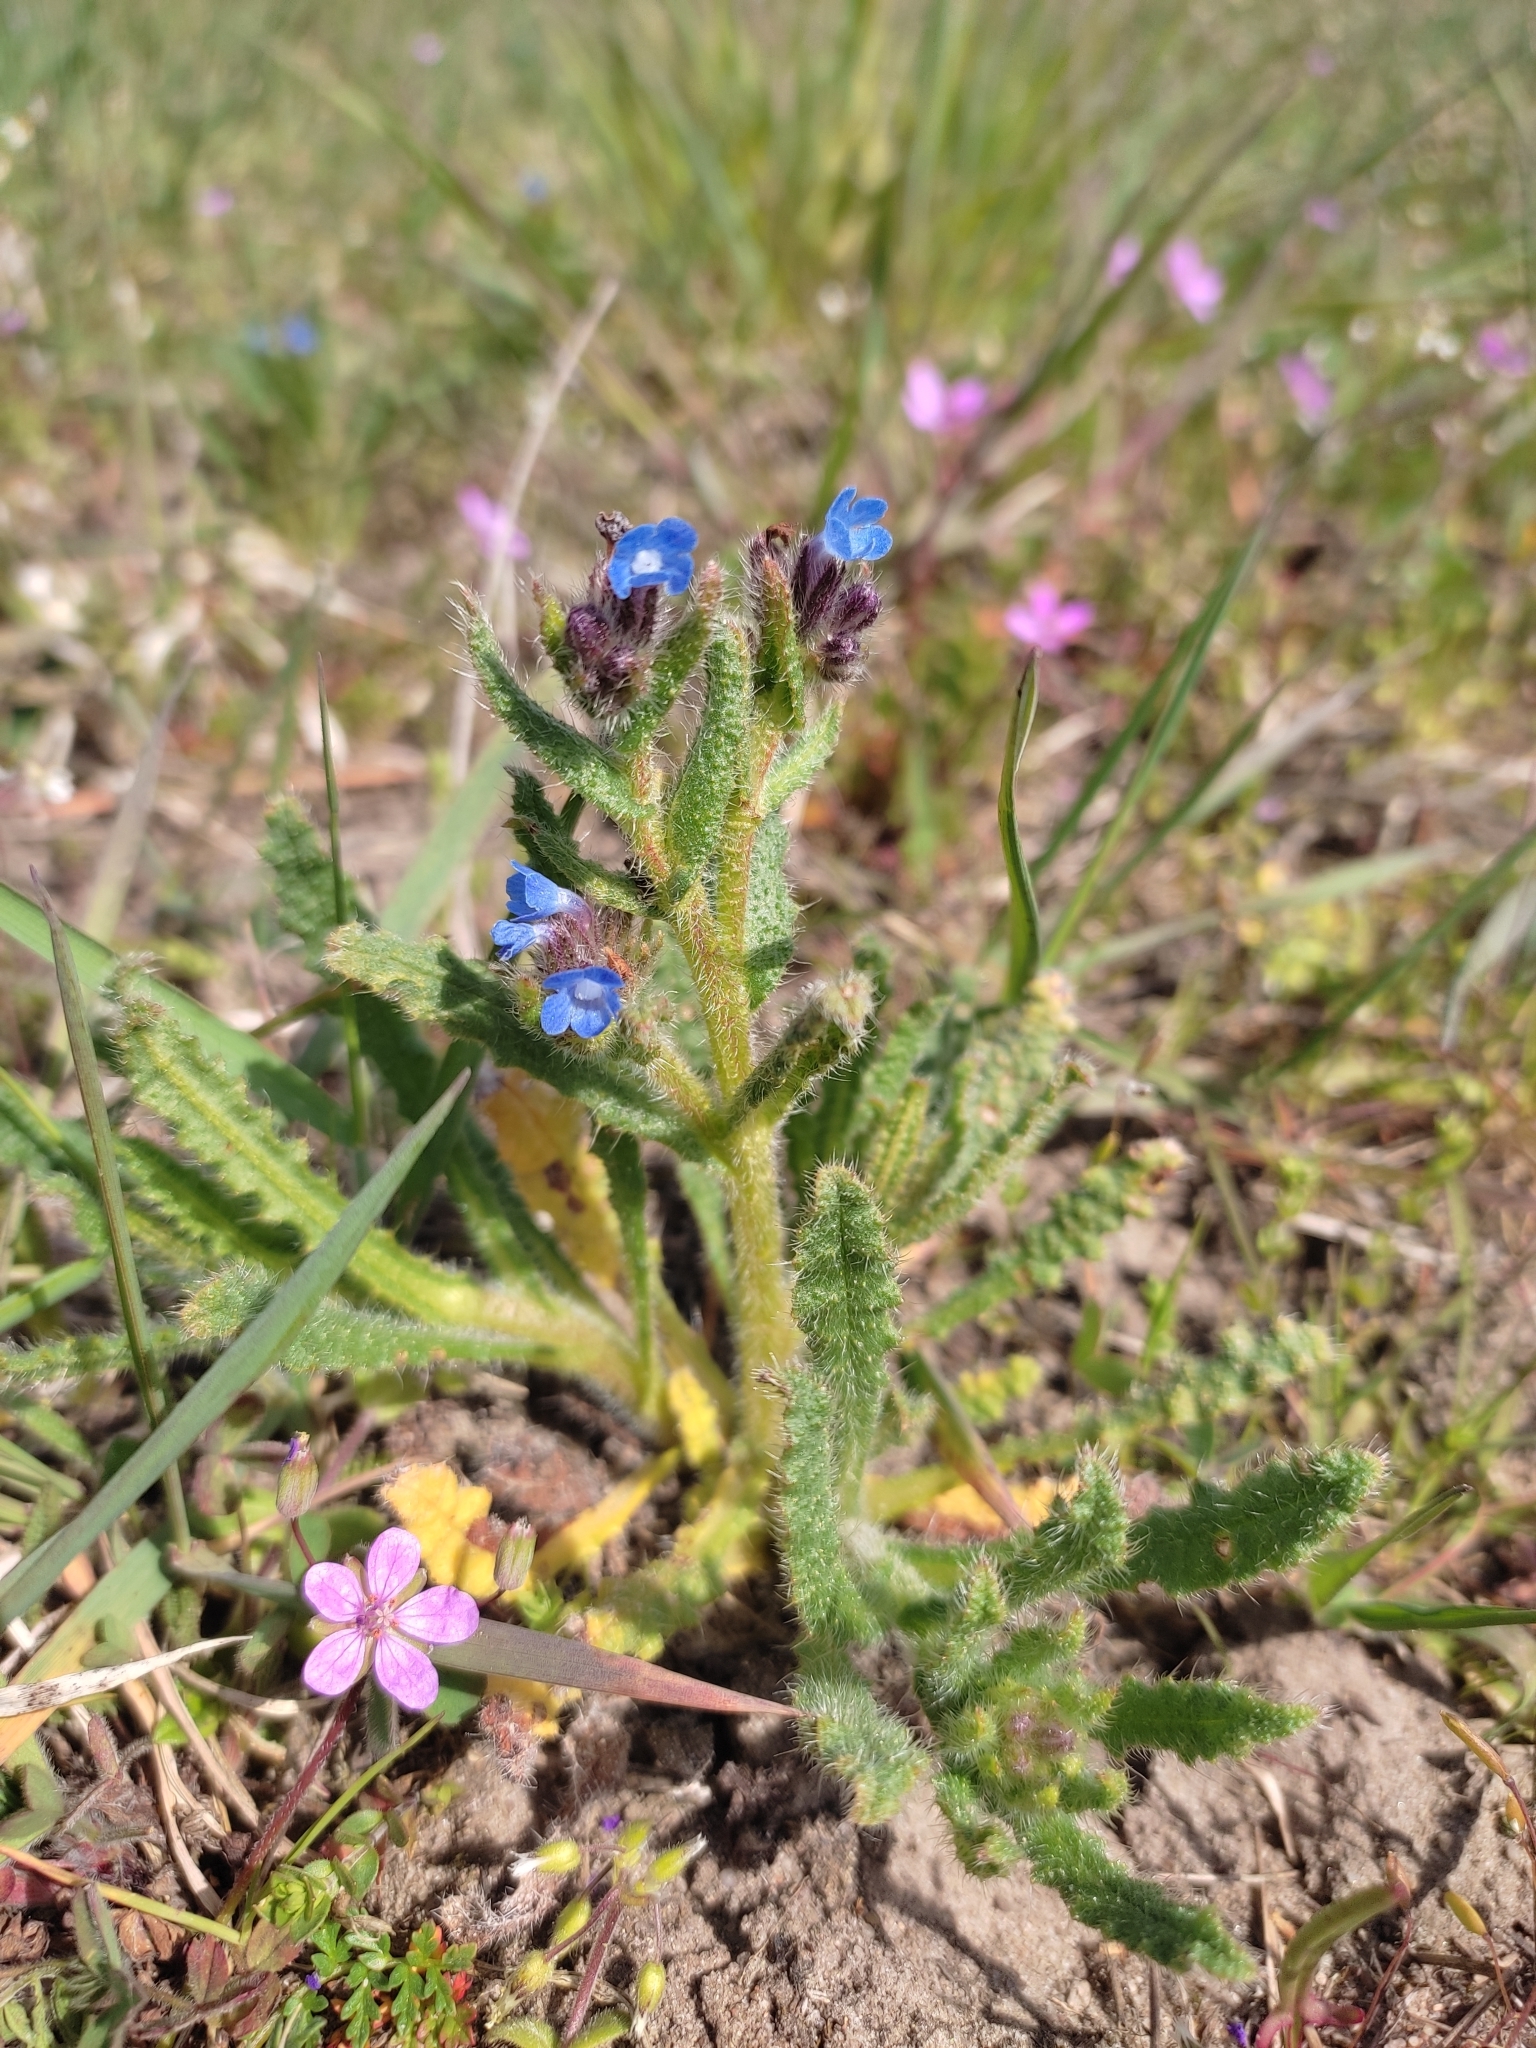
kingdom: Plantae
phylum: Tracheophyta
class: Magnoliopsida
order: Boraginales
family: Boraginaceae
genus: Lycopsis
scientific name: Lycopsis arvensis
